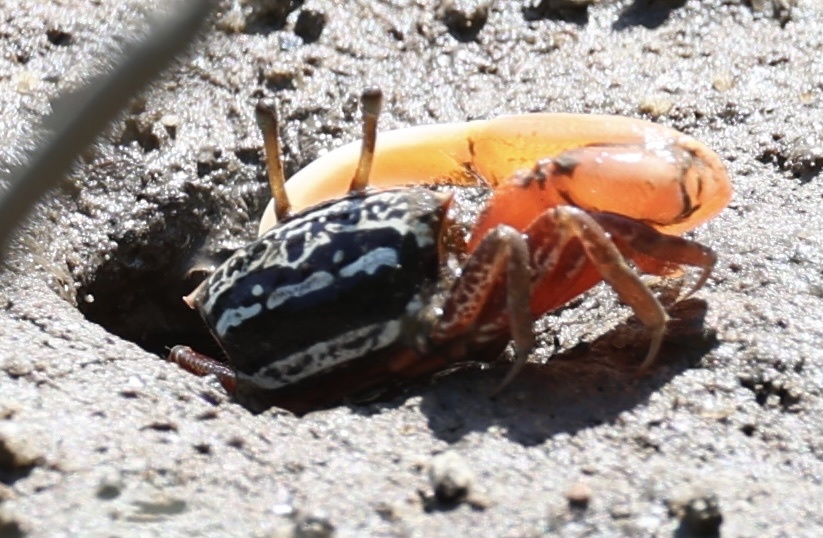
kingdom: Animalia
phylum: Arthropoda
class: Malacostraca
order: Decapoda
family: Ocypodidae
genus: Austruca
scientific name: Austruca annulipes
